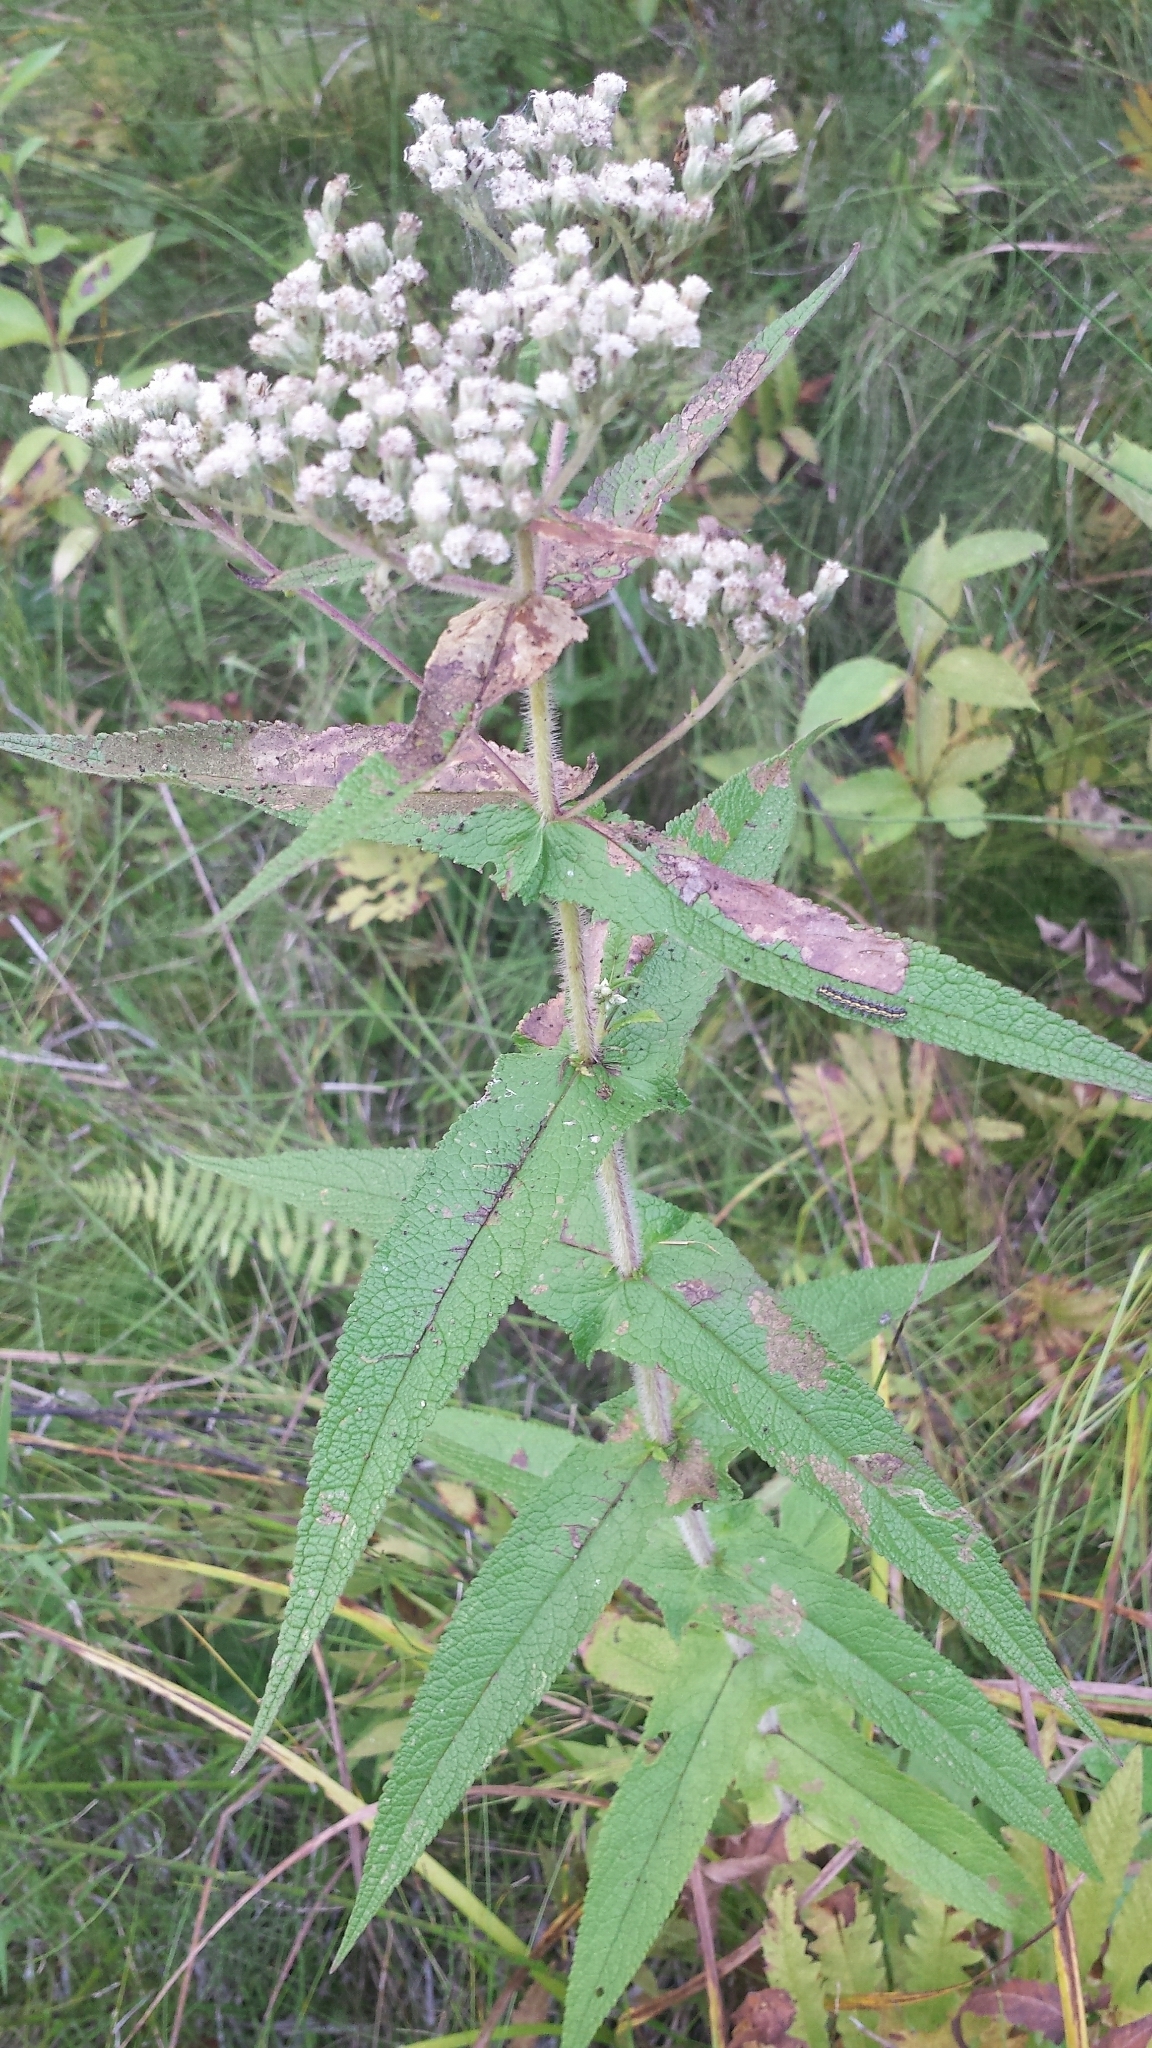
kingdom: Plantae
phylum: Tracheophyta
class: Magnoliopsida
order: Asterales
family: Asteraceae
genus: Eupatorium
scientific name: Eupatorium perfoliatum
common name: Boneset
